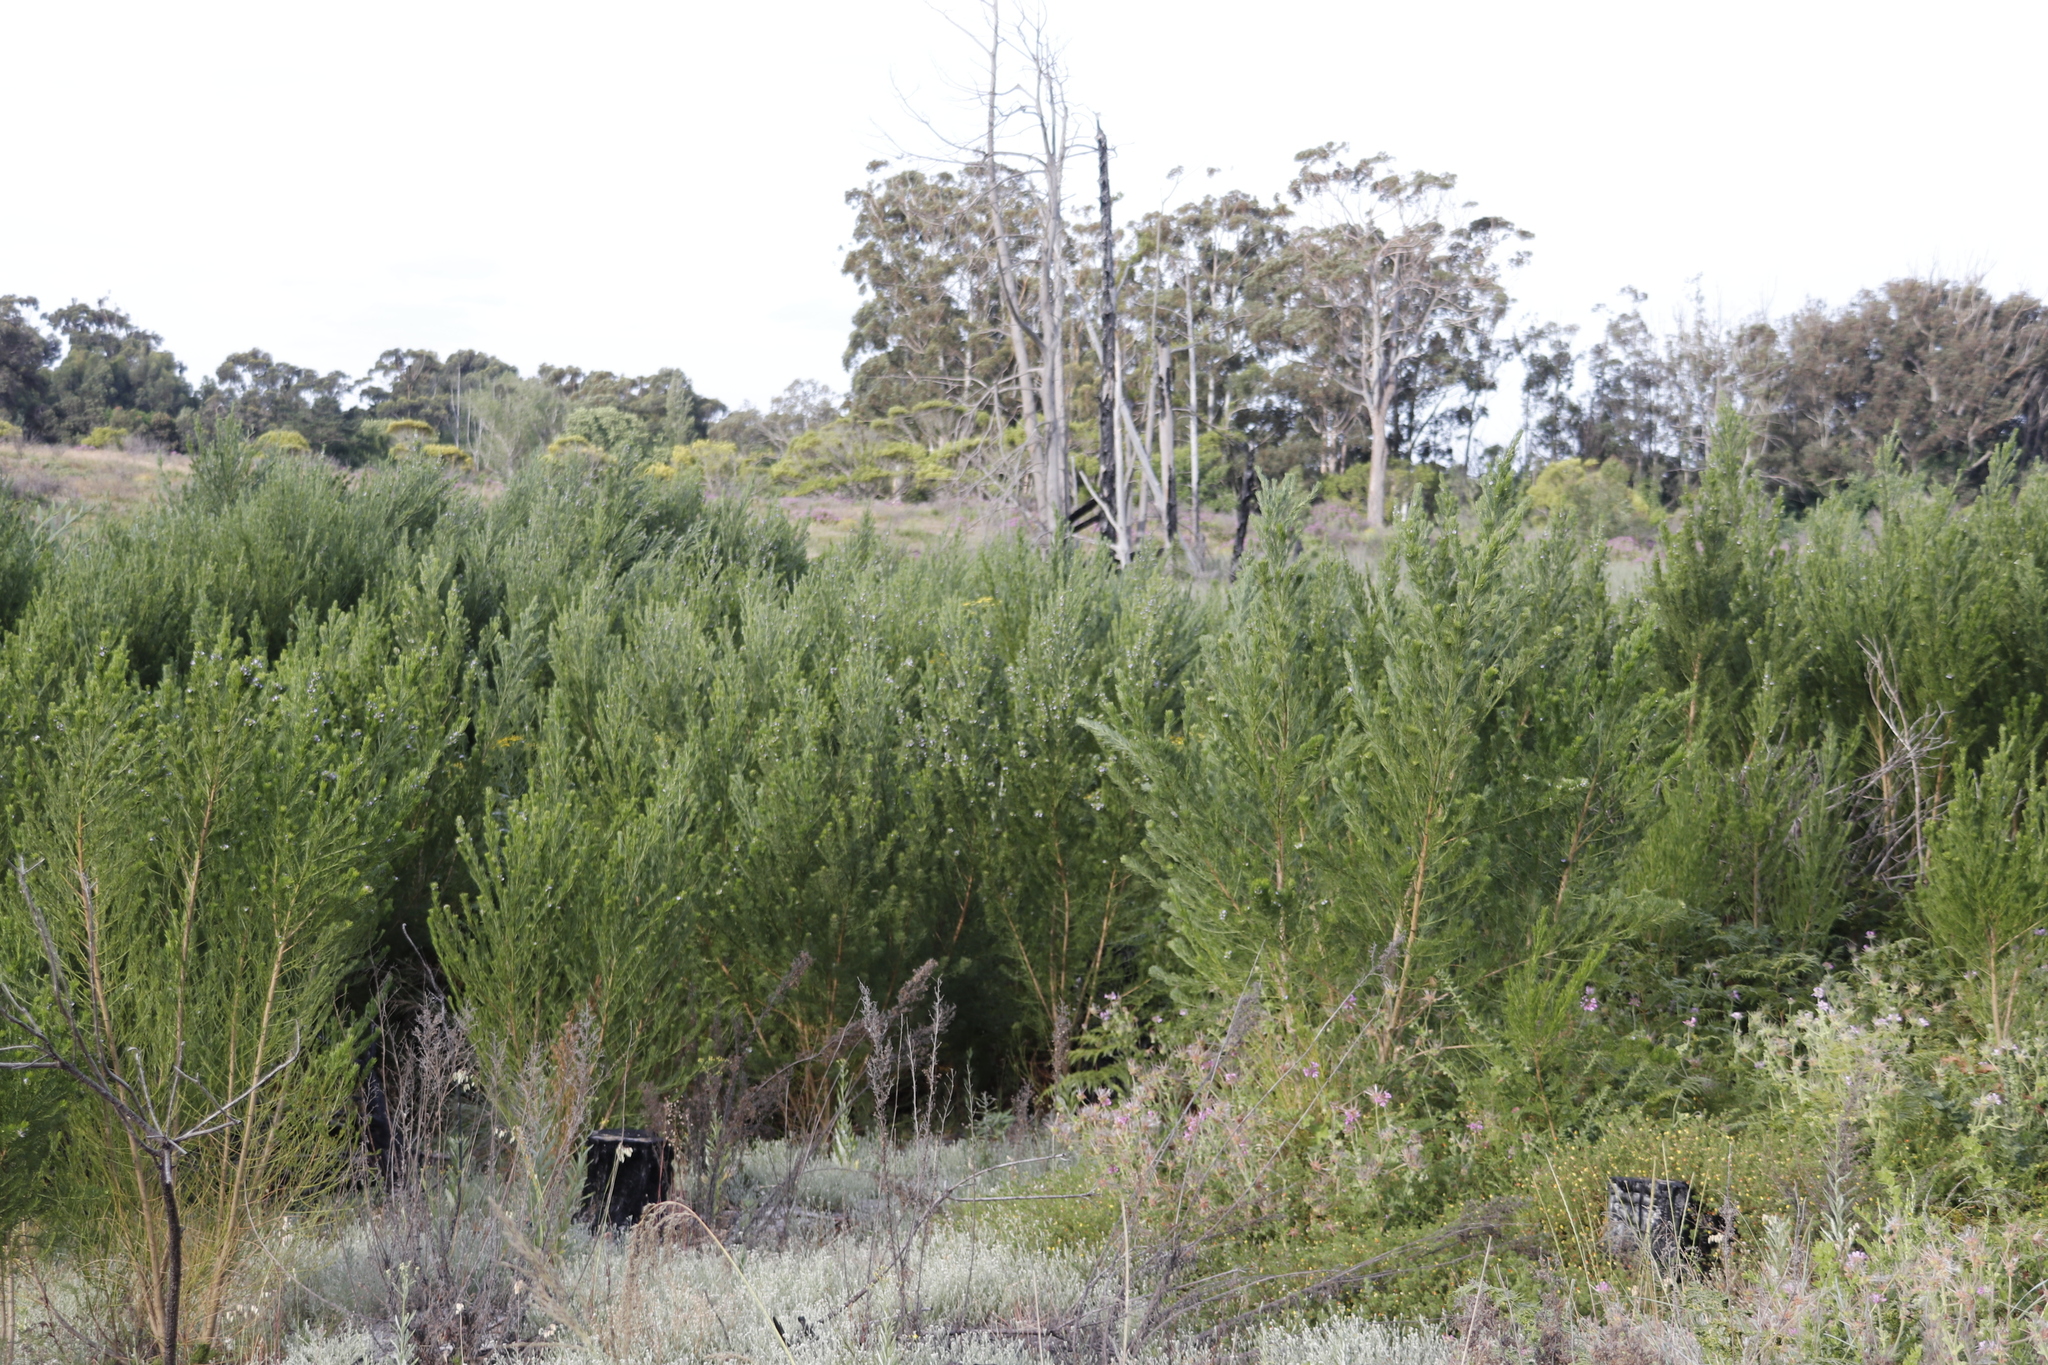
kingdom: Plantae
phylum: Tracheophyta
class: Magnoliopsida
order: Fabales
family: Fabaceae
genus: Psoralea
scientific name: Psoralea pinnata
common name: African scurfpea
